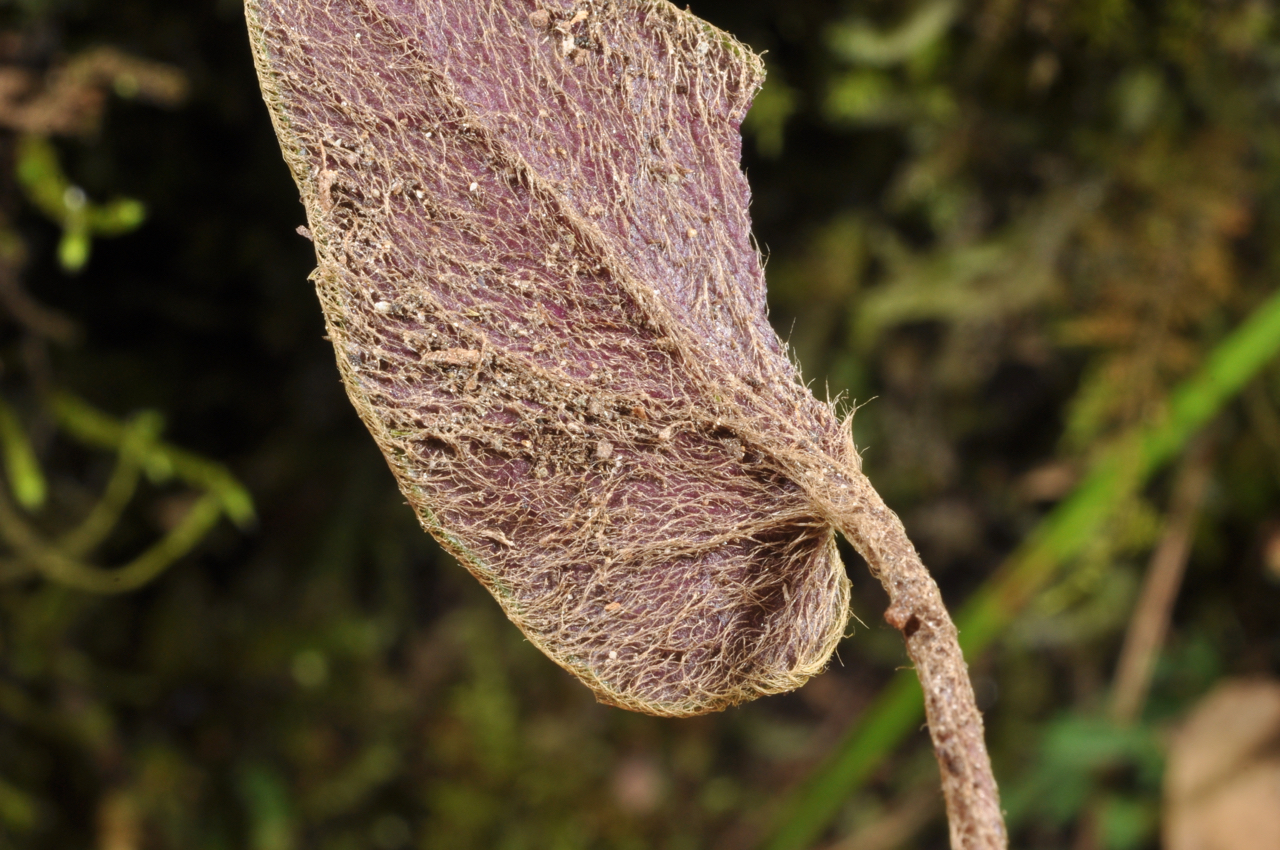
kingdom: Plantae
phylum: Tracheophyta
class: Magnoliopsida
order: Asterales
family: Asteraceae
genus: Ainsliaea
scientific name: Ainsliaea fragrans
